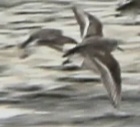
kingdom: Animalia
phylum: Chordata
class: Aves
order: Charadriiformes
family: Scolopacidae
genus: Calidris
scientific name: Calidris alpina
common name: Dunlin
